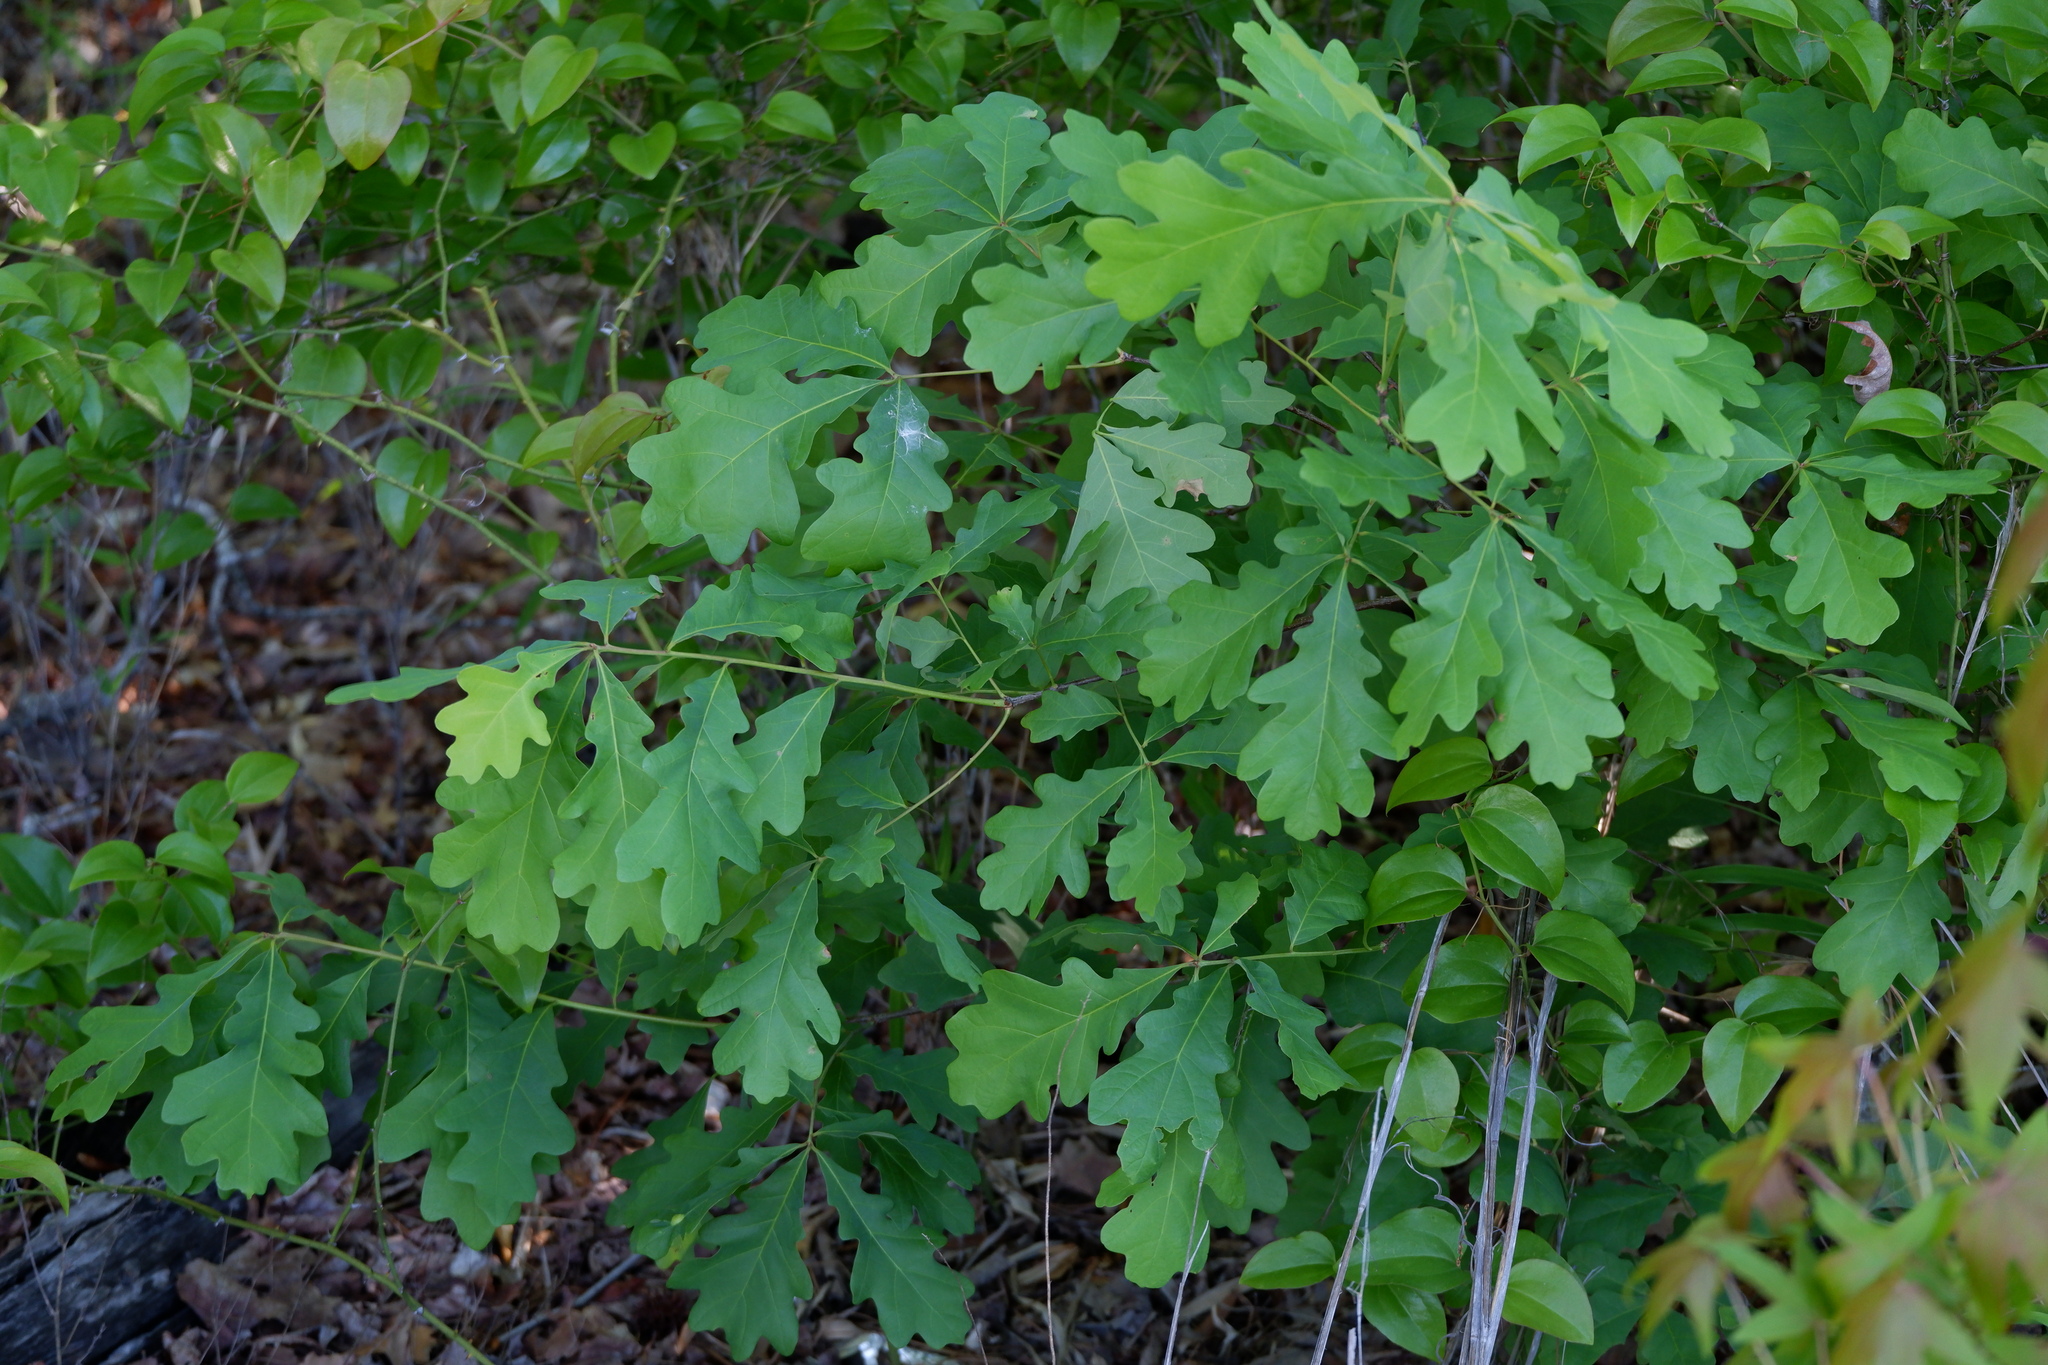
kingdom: Plantae
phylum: Tracheophyta
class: Magnoliopsida
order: Fagales
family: Fagaceae
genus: Quercus
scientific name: Quercus alba
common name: White oak
